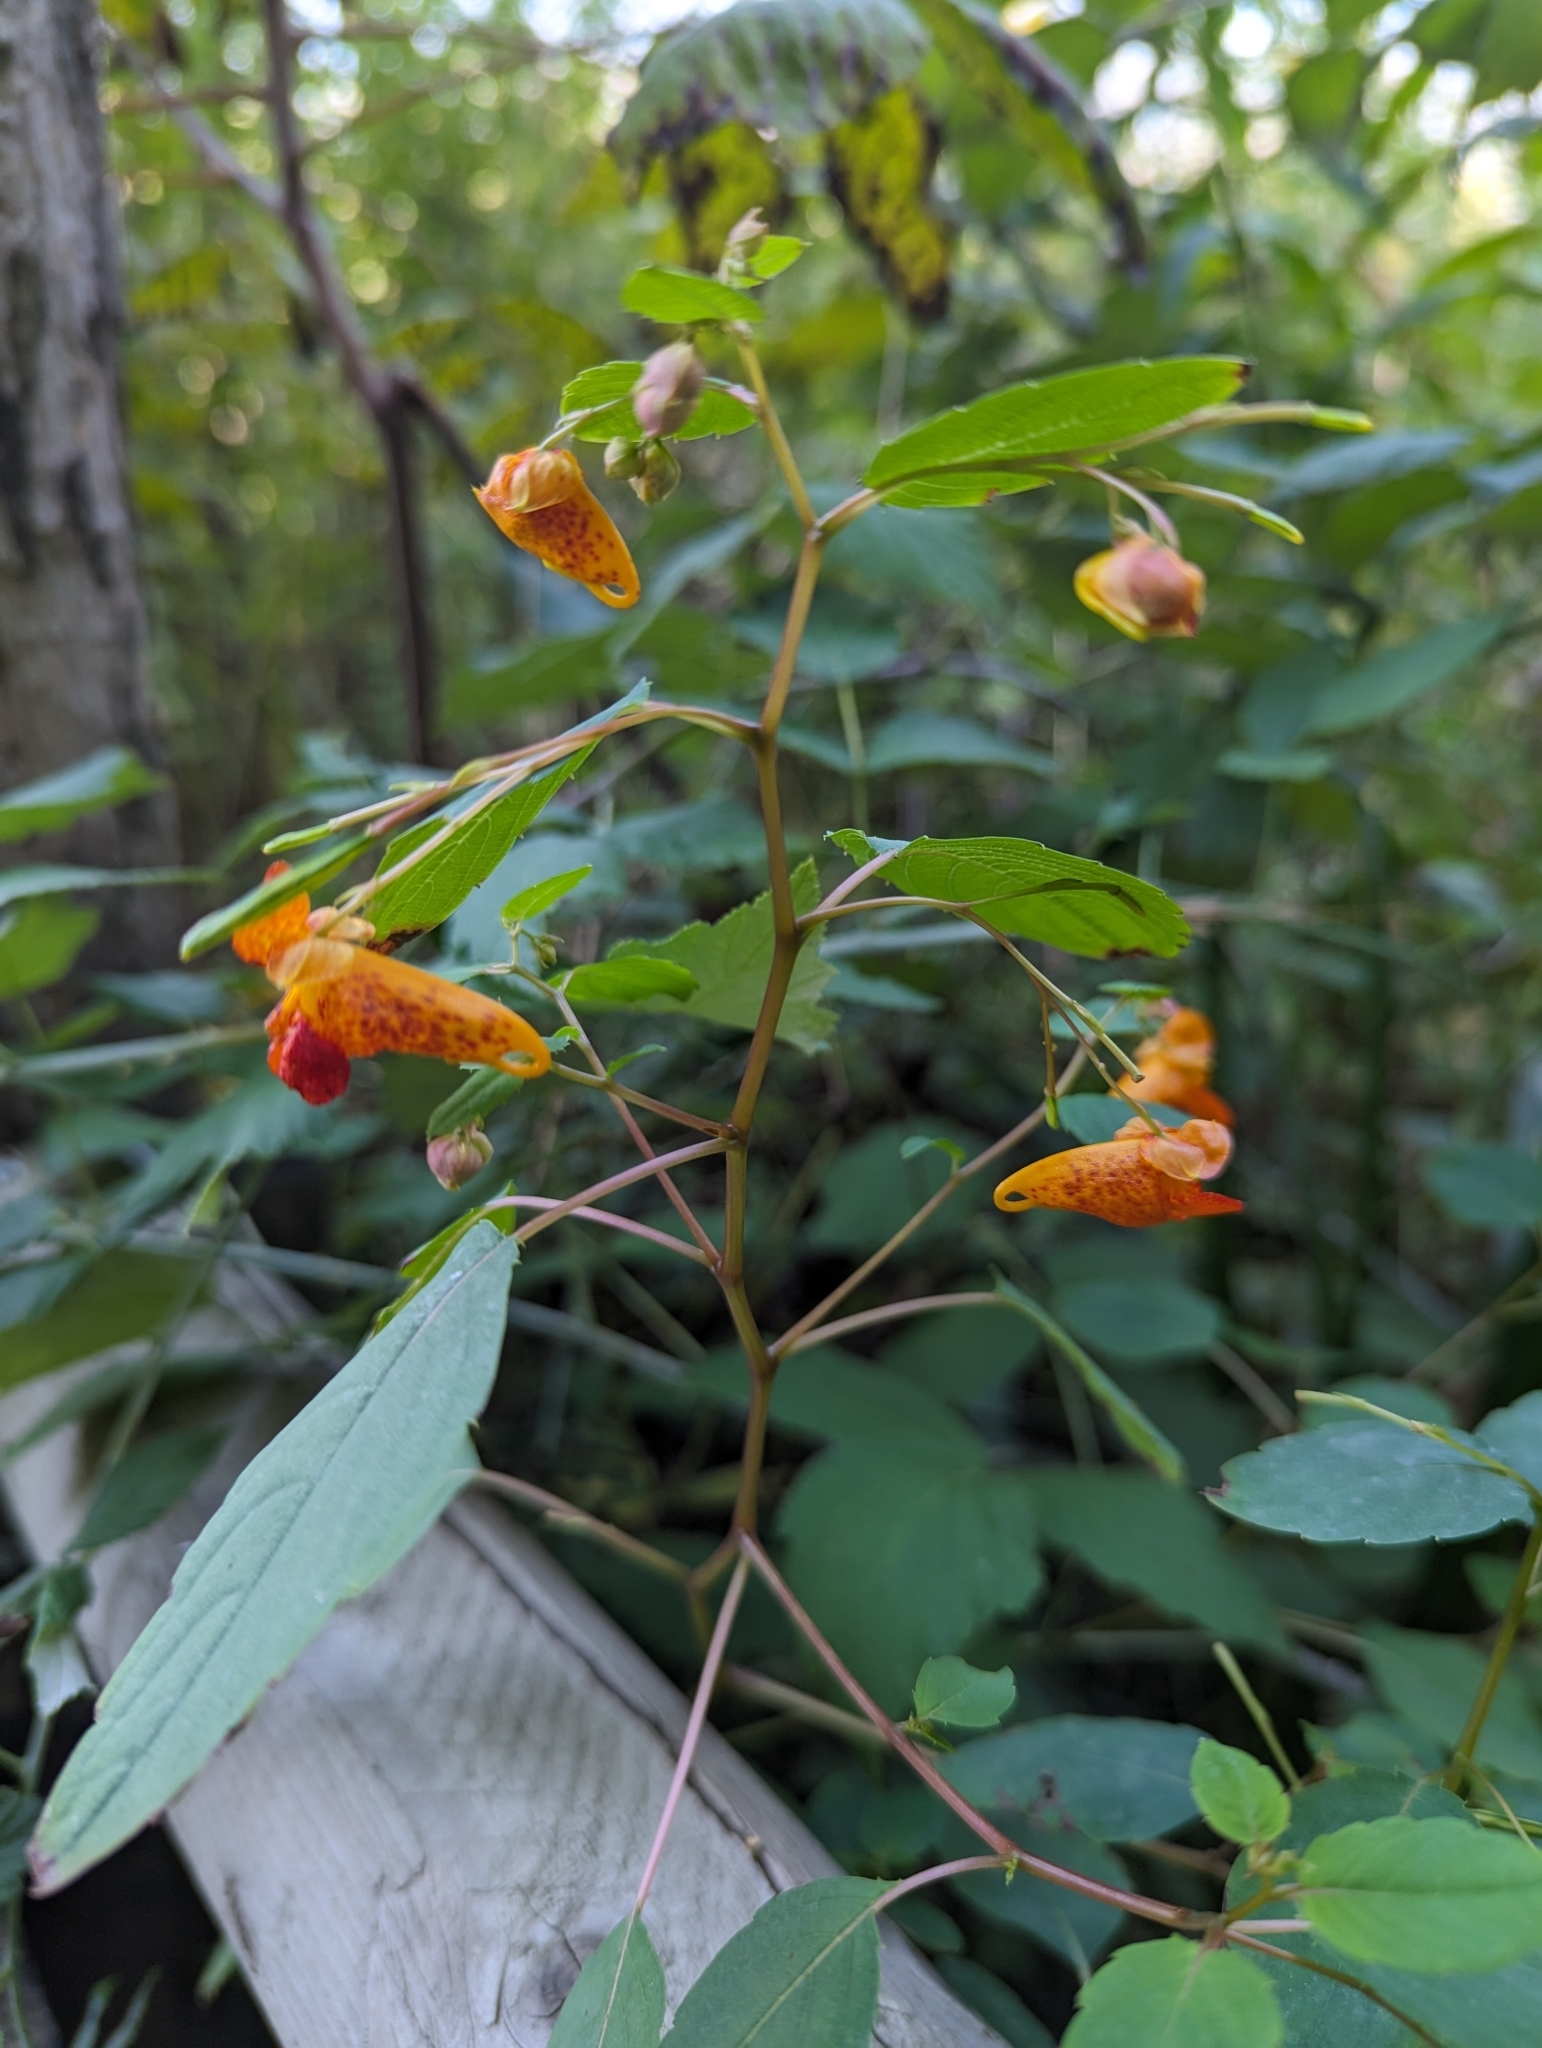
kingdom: Plantae
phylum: Tracheophyta
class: Magnoliopsida
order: Ericales
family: Balsaminaceae
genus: Impatiens
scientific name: Impatiens capensis
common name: Orange balsam
